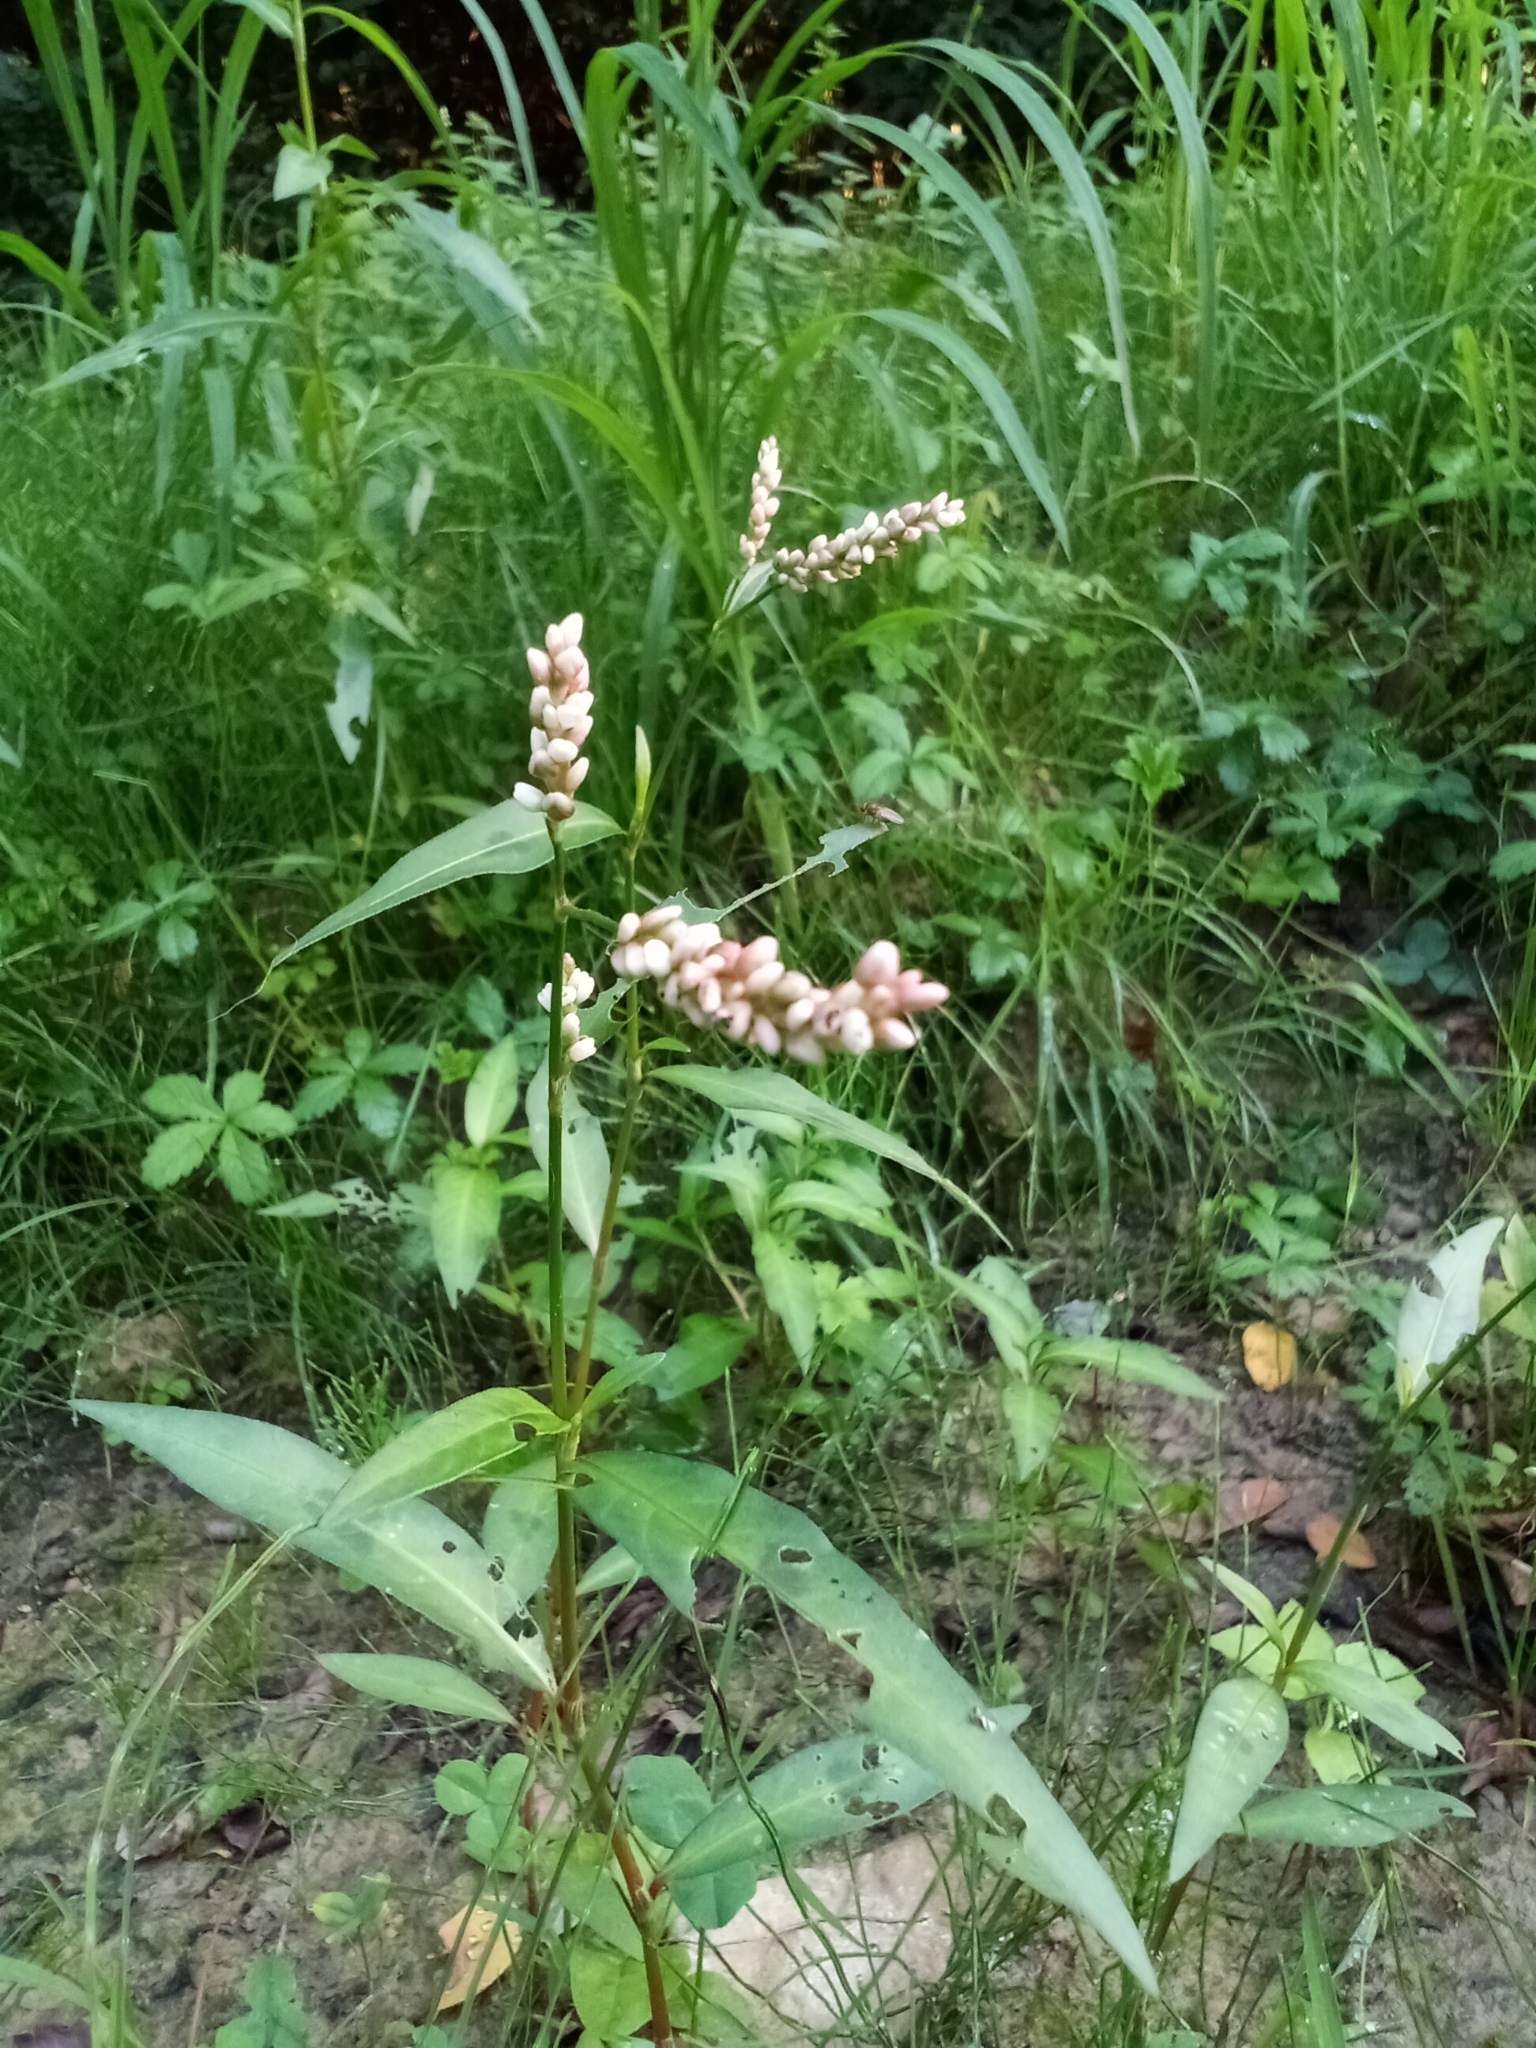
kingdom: Plantae
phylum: Tracheophyta
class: Magnoliopsida
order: Caryophyllales
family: Polygonaceae
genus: Persicaria
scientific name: Persicaria maculosa
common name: Redshank
